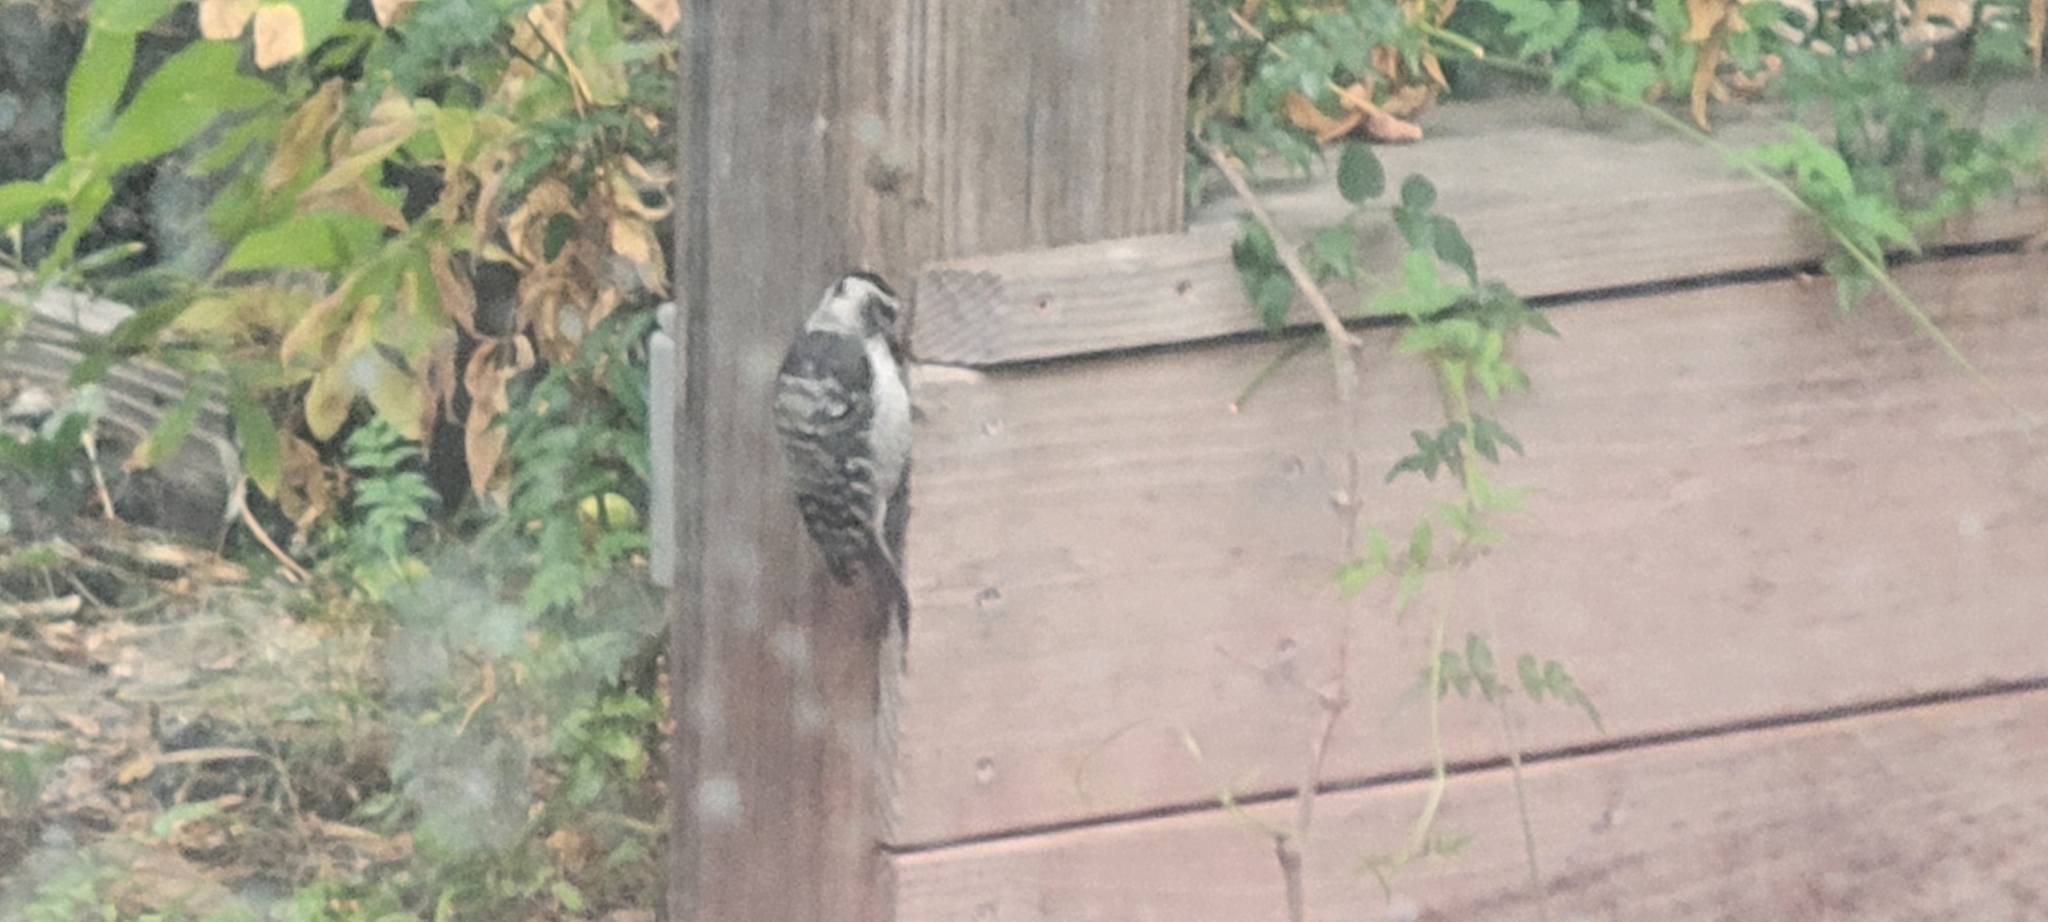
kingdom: Animalia
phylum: Chordata
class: Aves
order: Piciformes
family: Picidae
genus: Dryobates
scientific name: Dryobates nuttallii
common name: Nuttall's woodpecker
